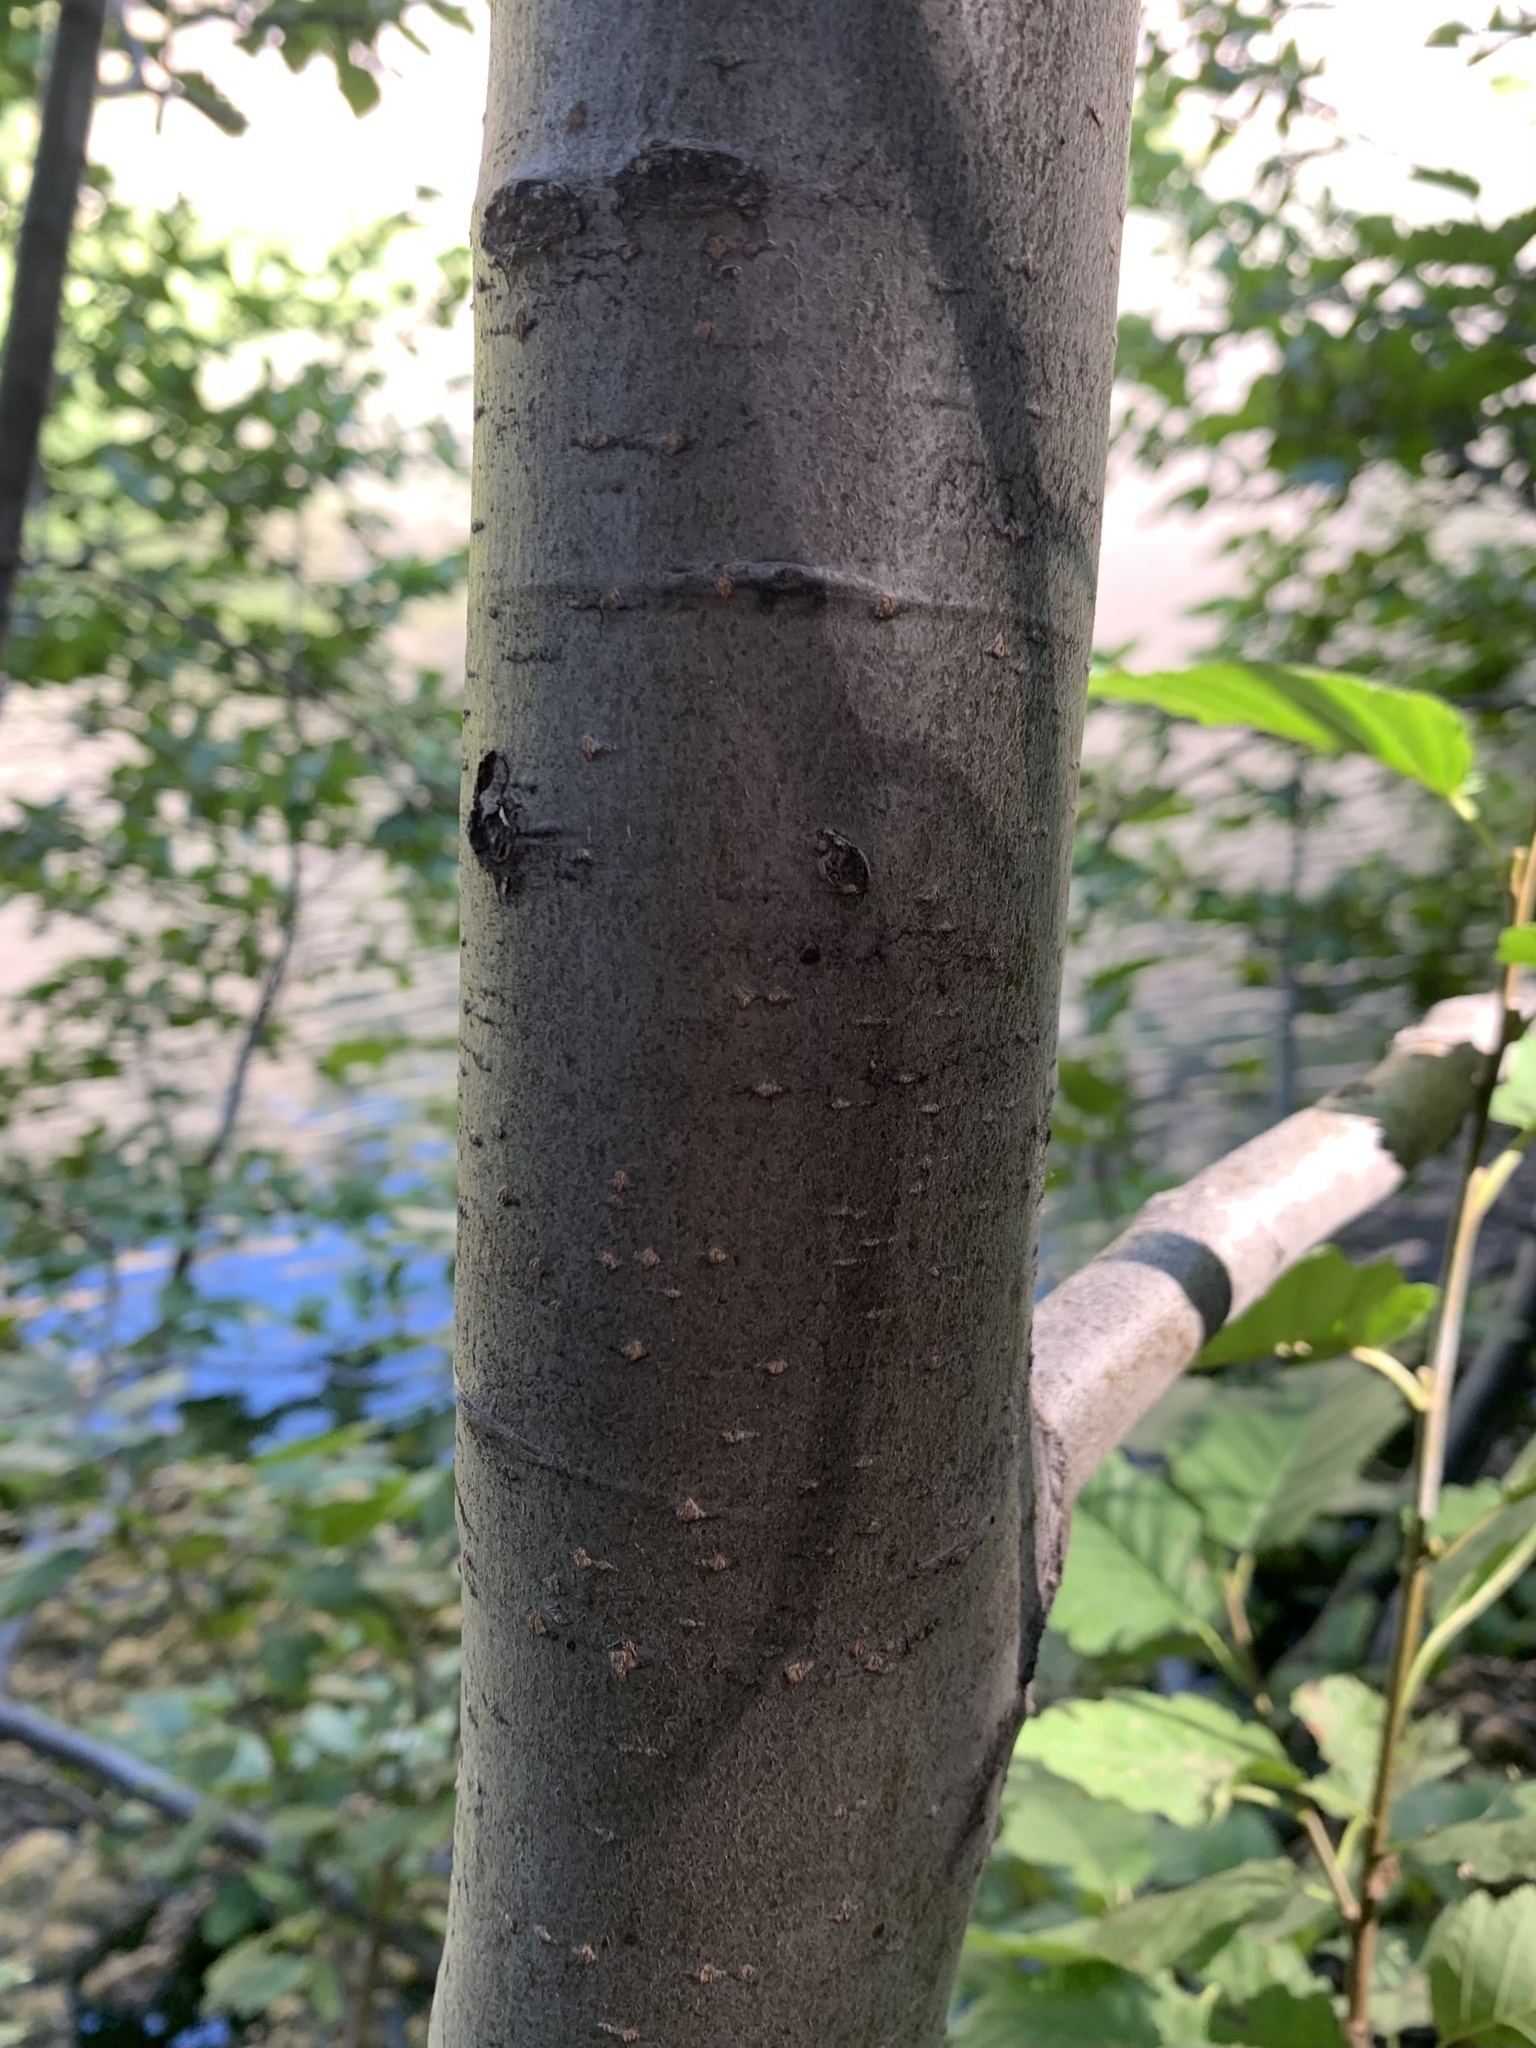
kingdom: Plantae
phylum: Tracheophyta
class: Magnoliopsida
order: Fagales
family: Betulaceae
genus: Alnus
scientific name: Alnus incana
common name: Grey alder
